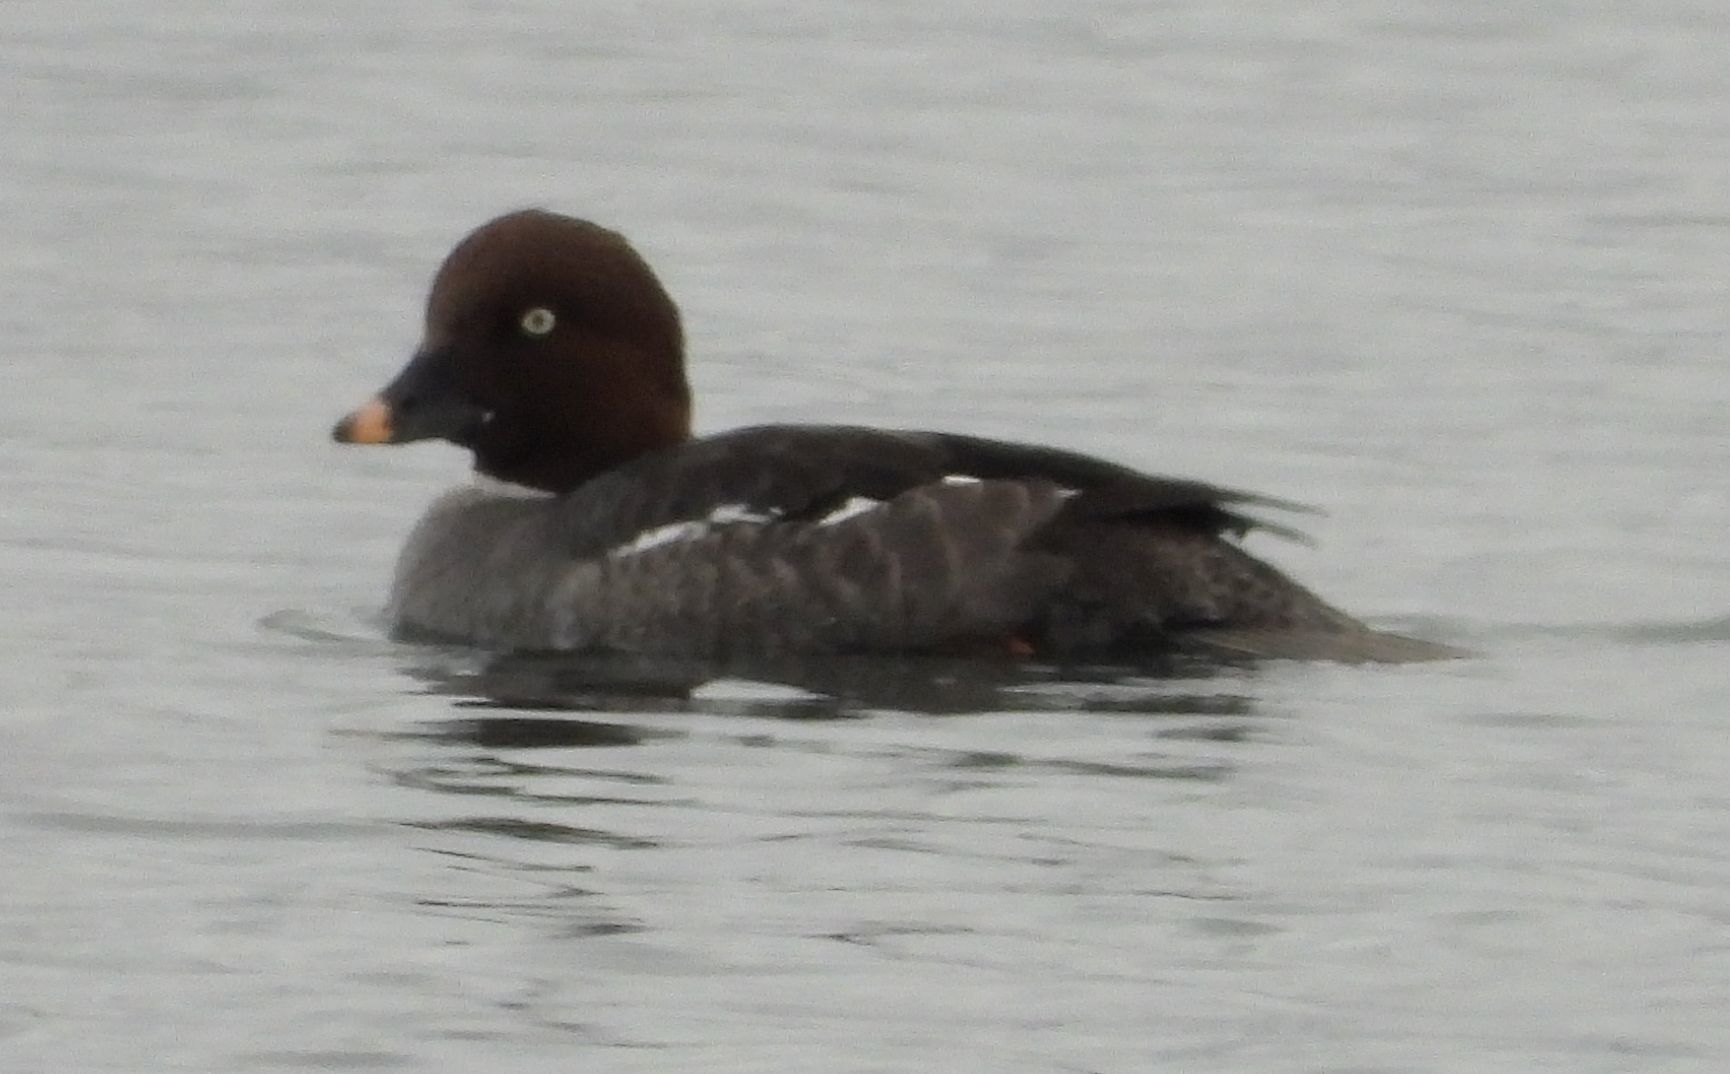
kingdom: Animalia
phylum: Chordata
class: Aves
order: Anseriformes
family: Anatidae
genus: Bucephala
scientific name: Bucephala clangula
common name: Common goldeneye
